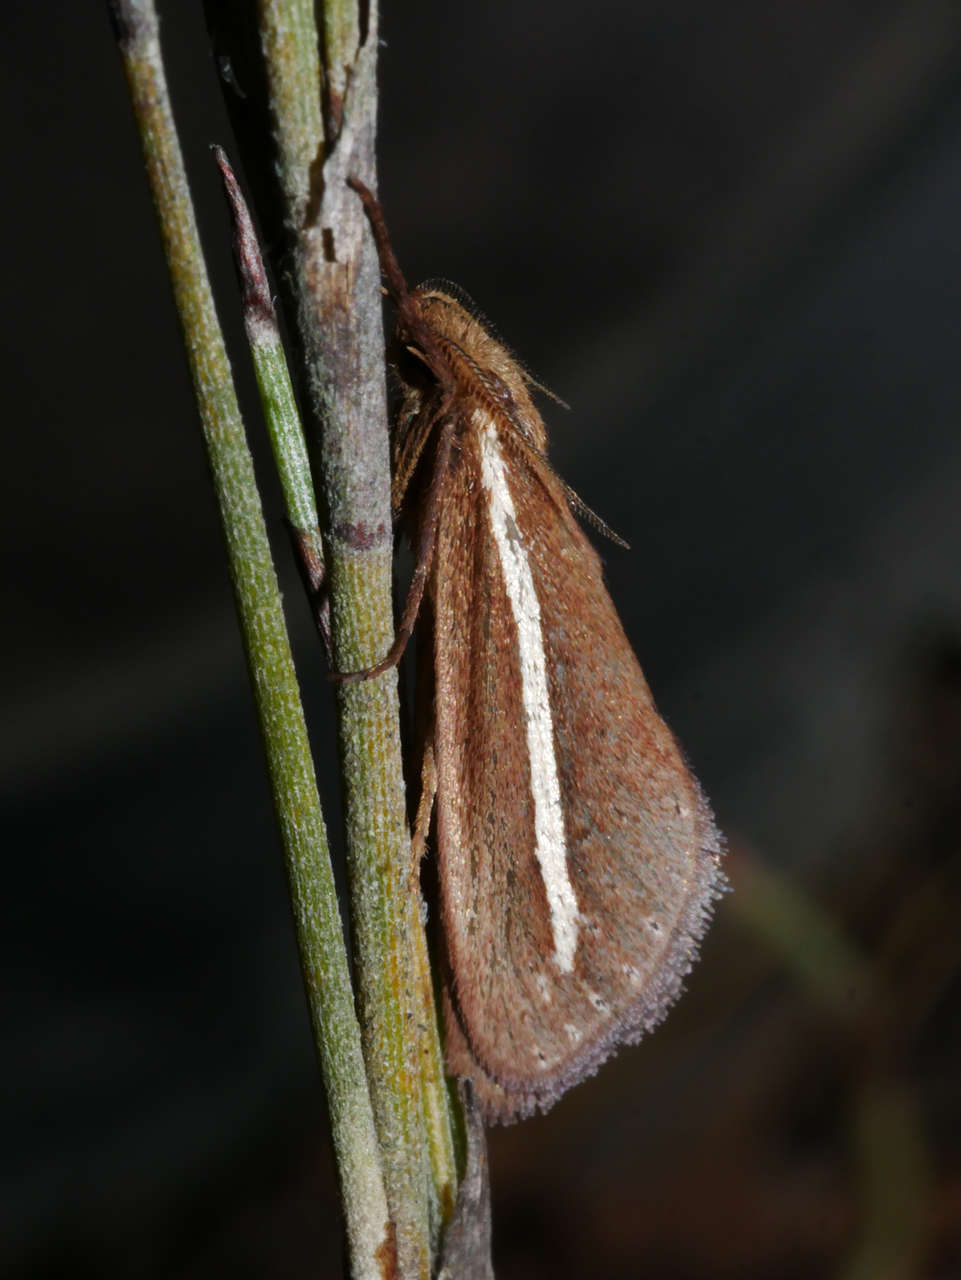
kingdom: Animalia
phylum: Arthropoda
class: Insecta
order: Lepidoptera
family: Hepialidae
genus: Fraus
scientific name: Fraus pteromela
